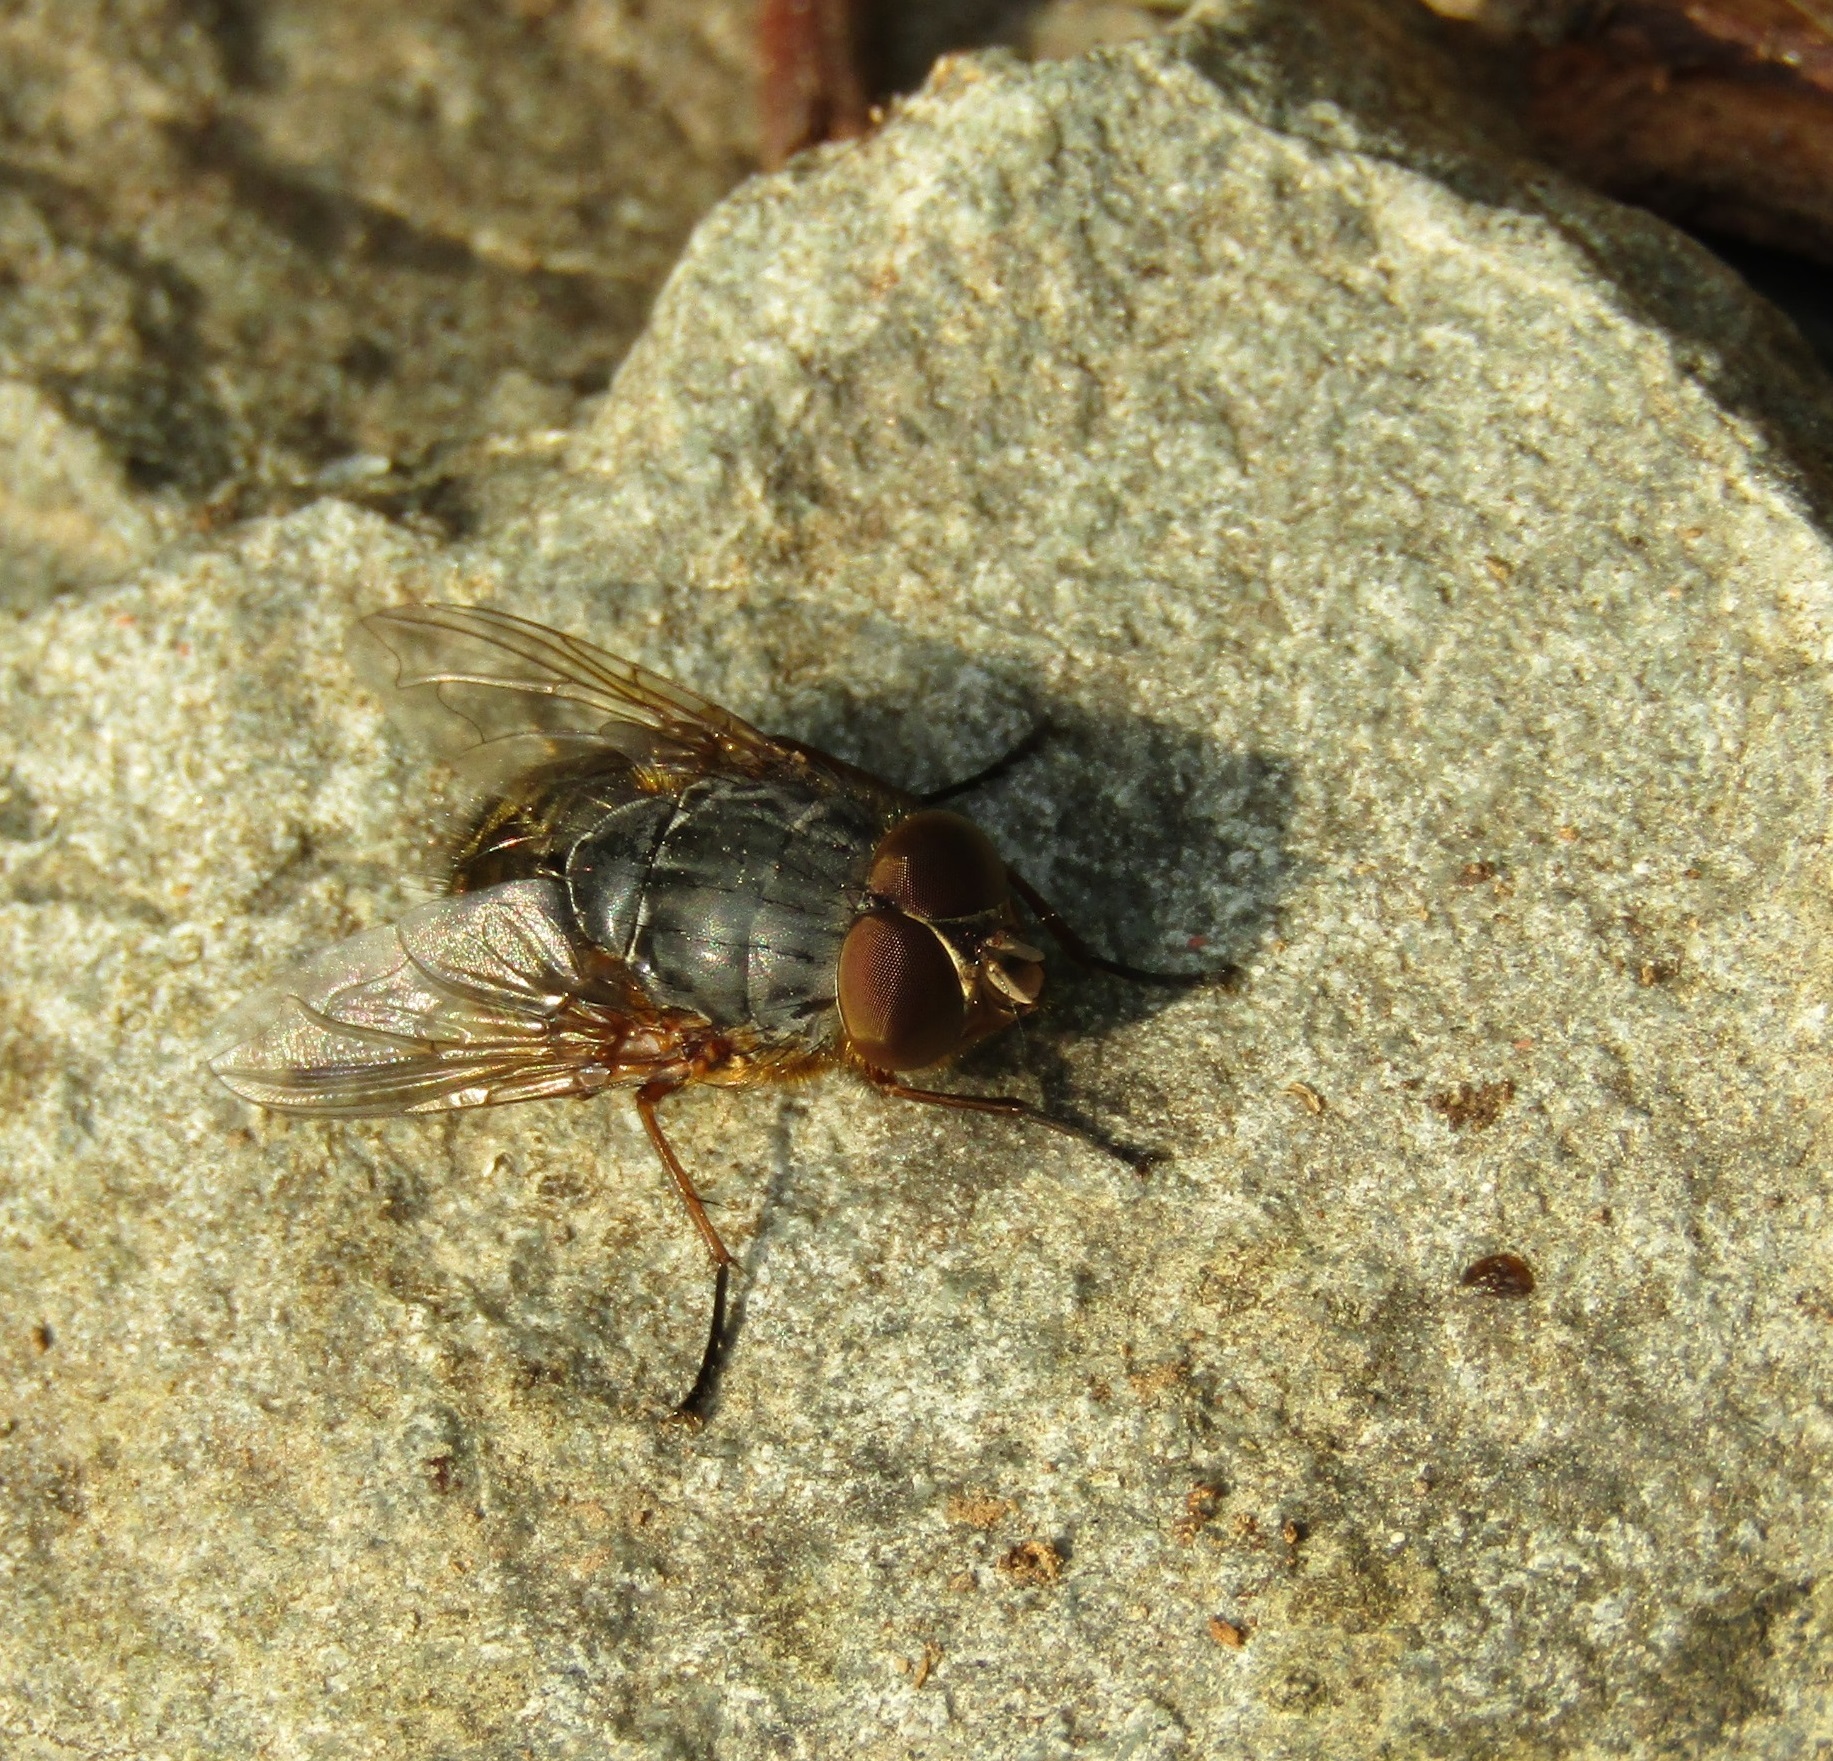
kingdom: Animalia
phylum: Arthropoda
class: Insecta
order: Diptera
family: Calliphoridae
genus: Calliphora
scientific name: Calliphora stygia
